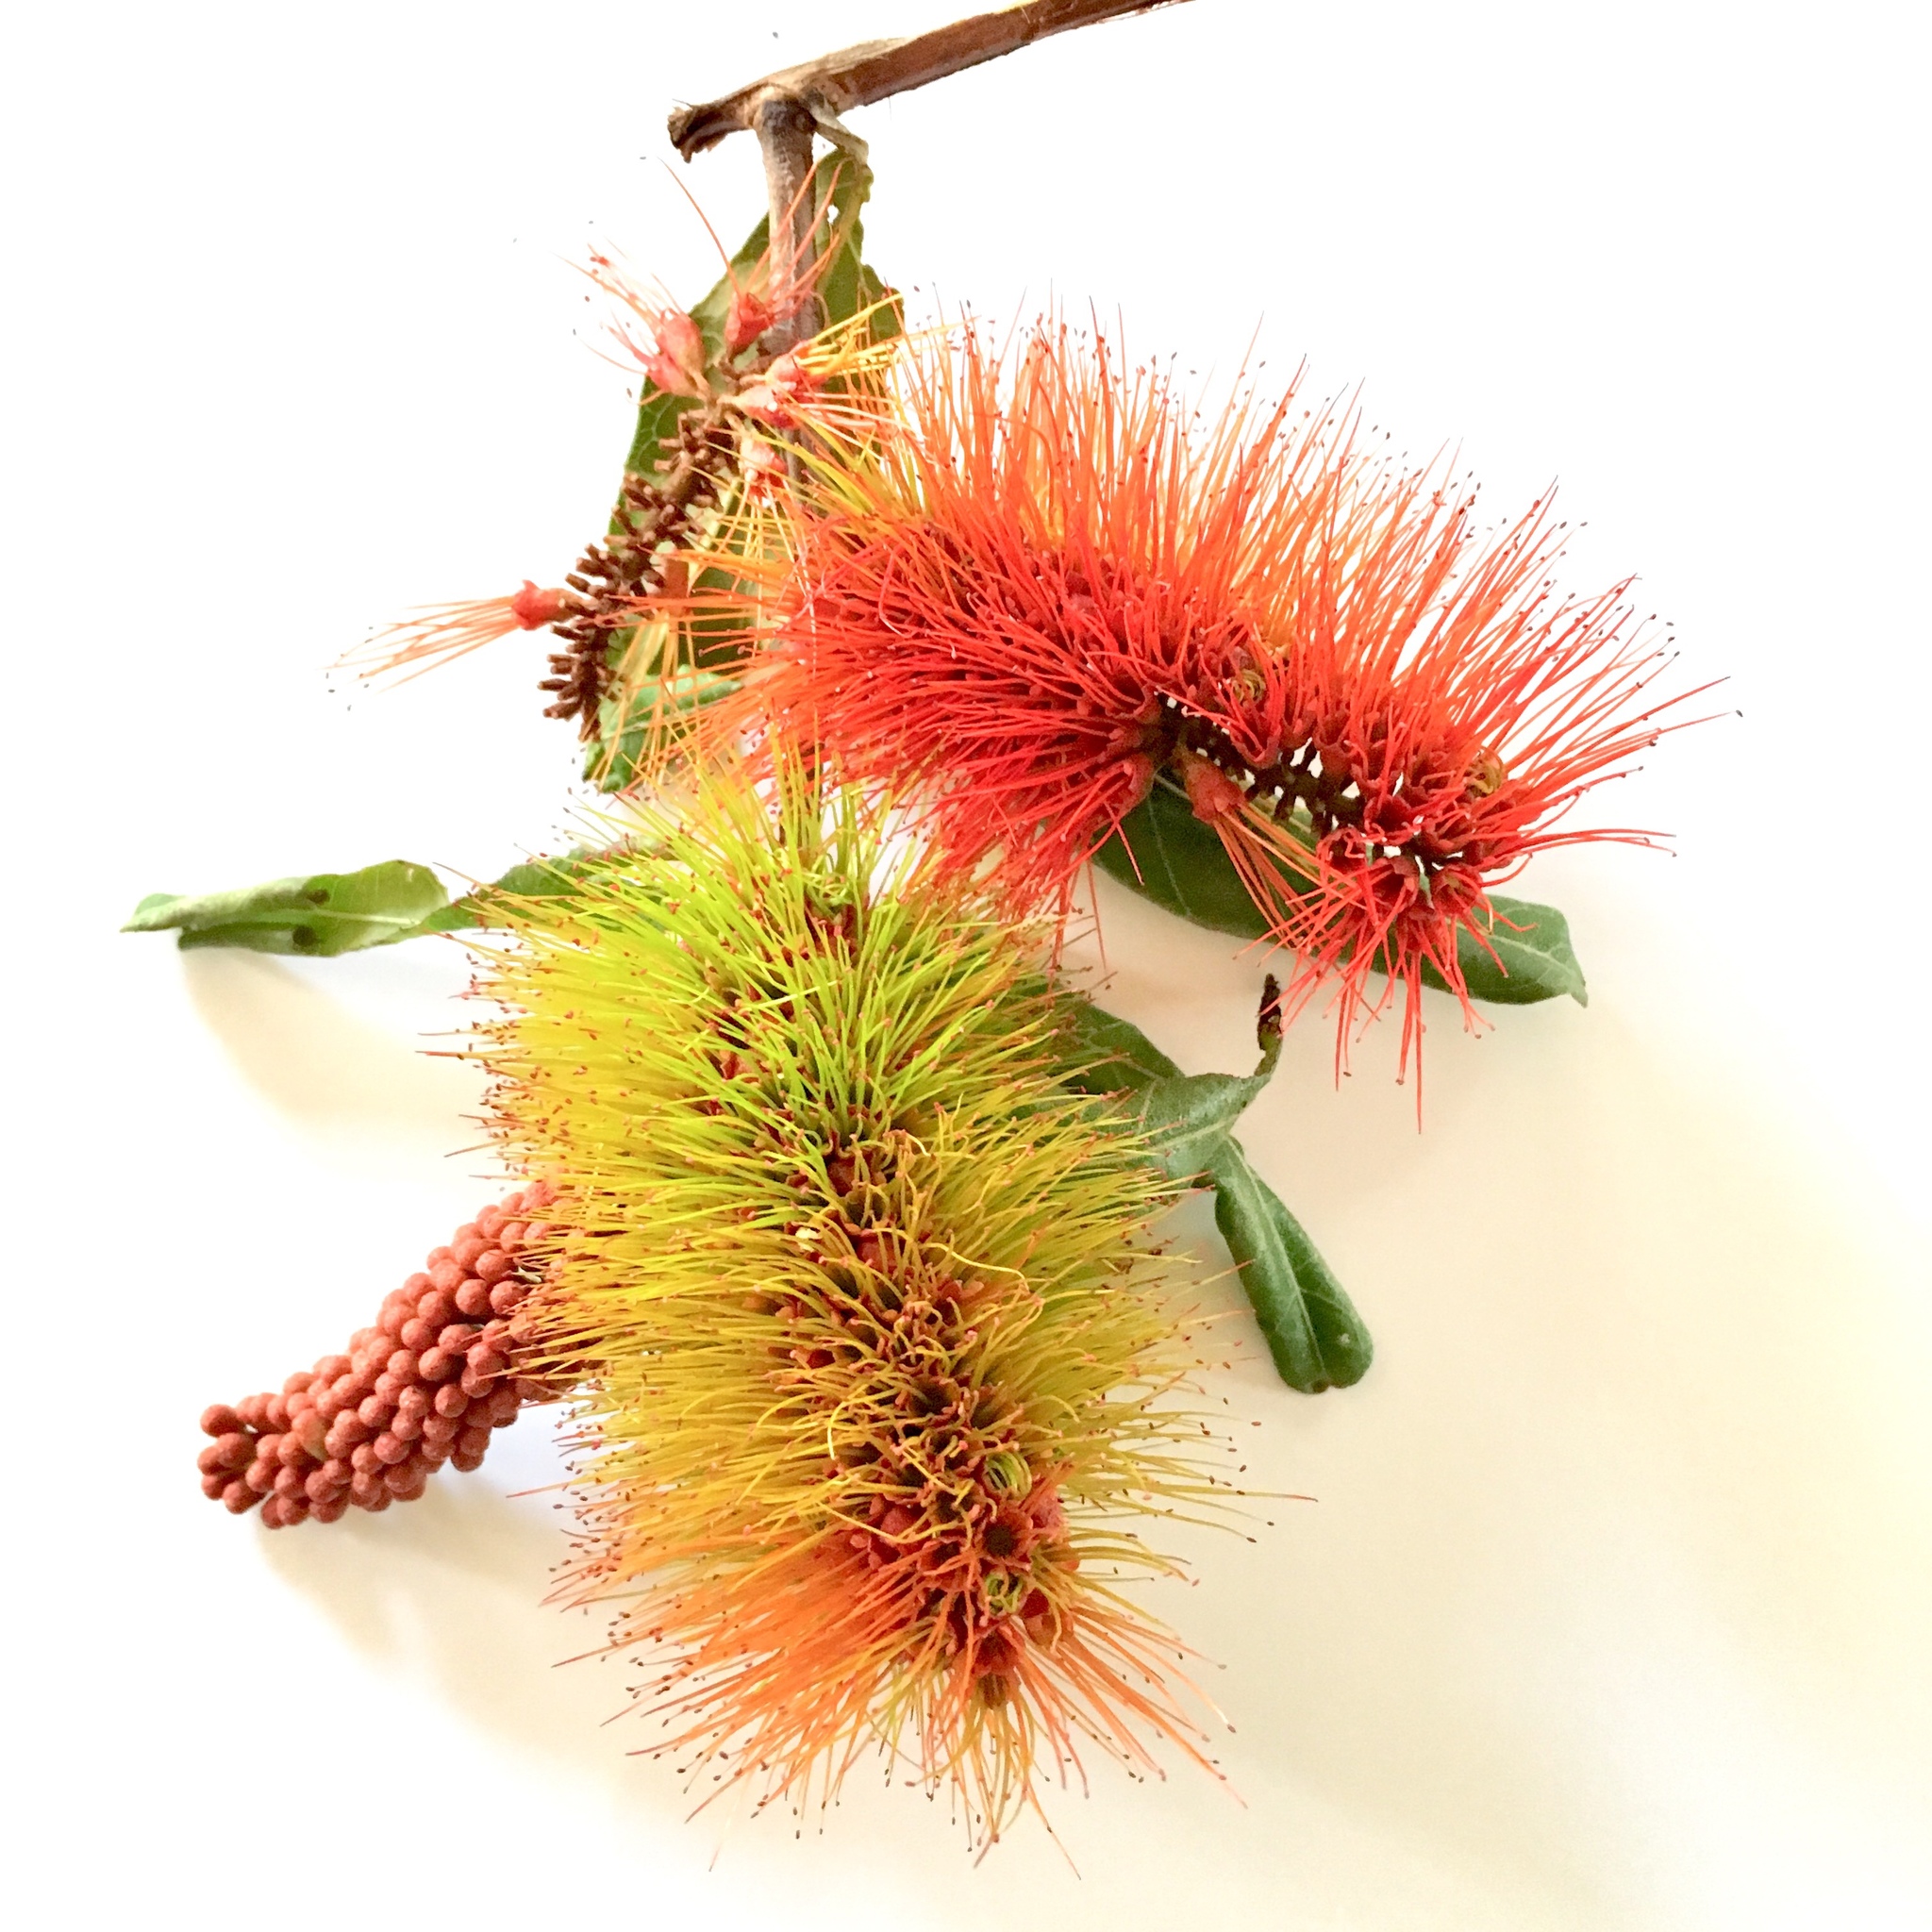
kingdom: Plantae
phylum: Tracheophyta
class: Magnoliopsida
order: Myrtales
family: Combretaceae
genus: Combretum
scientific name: Combretum fruticosum
